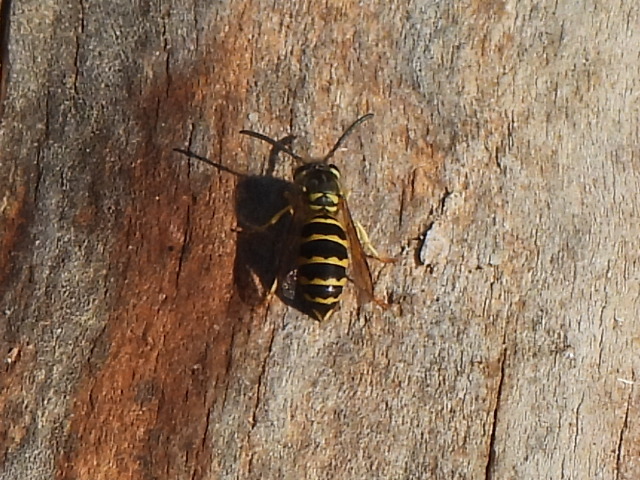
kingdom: Animalia
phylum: Arthropoda
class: Insecta
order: Hymenoptera
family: Vespidae
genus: Vespula
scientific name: Vespula maculifrons
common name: Eastern yellowjacket
